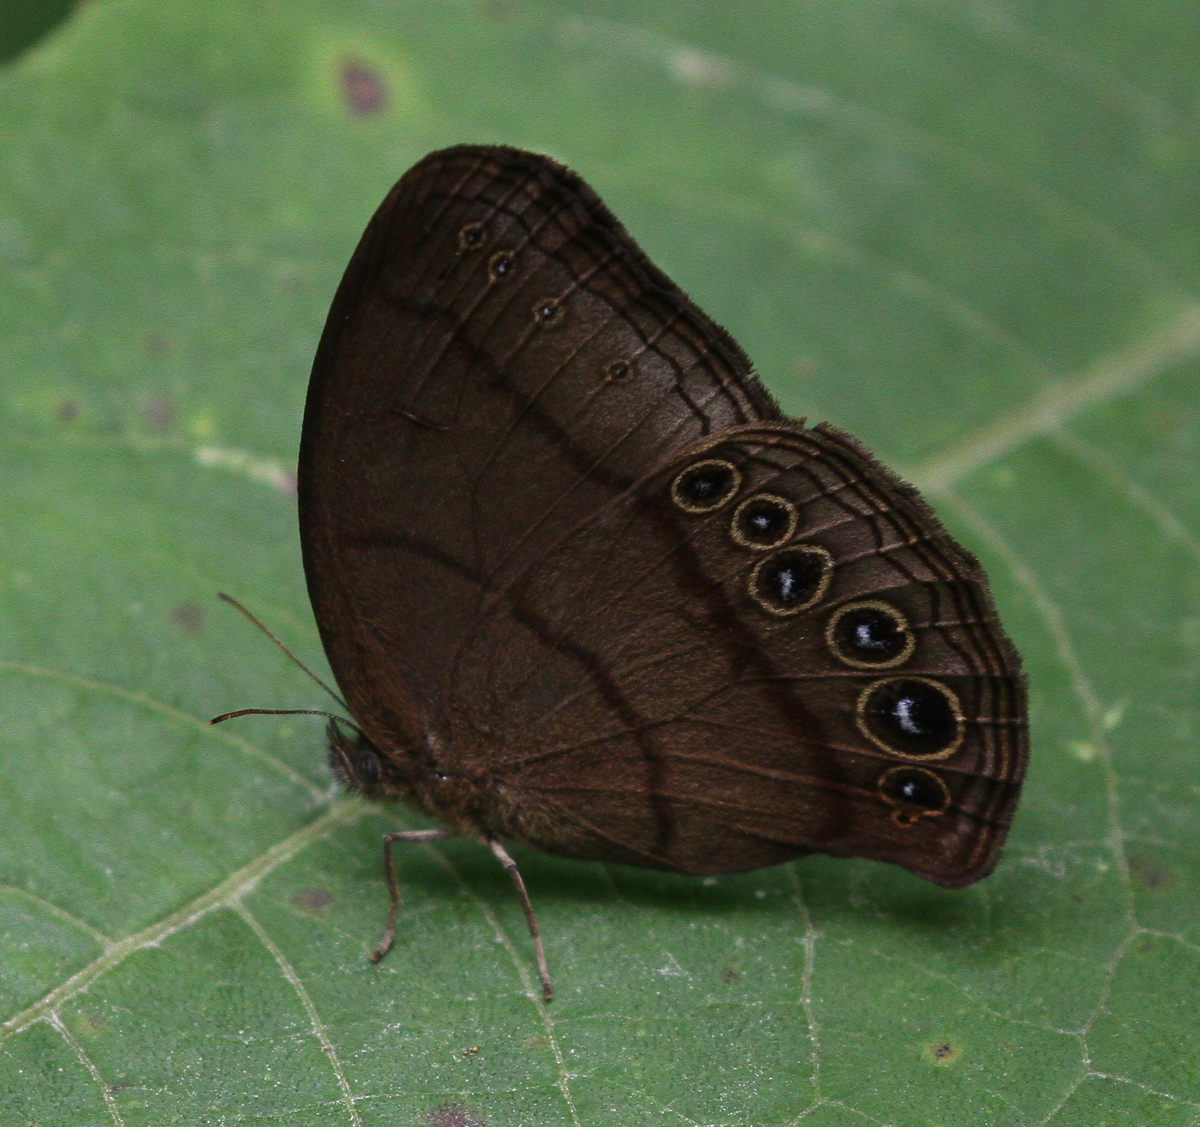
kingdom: Animalia
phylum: Arthropoda
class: Insecta
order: Lepidoptera
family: Nymphalidae
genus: Erichthodes
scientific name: Erichthodes erichtho
